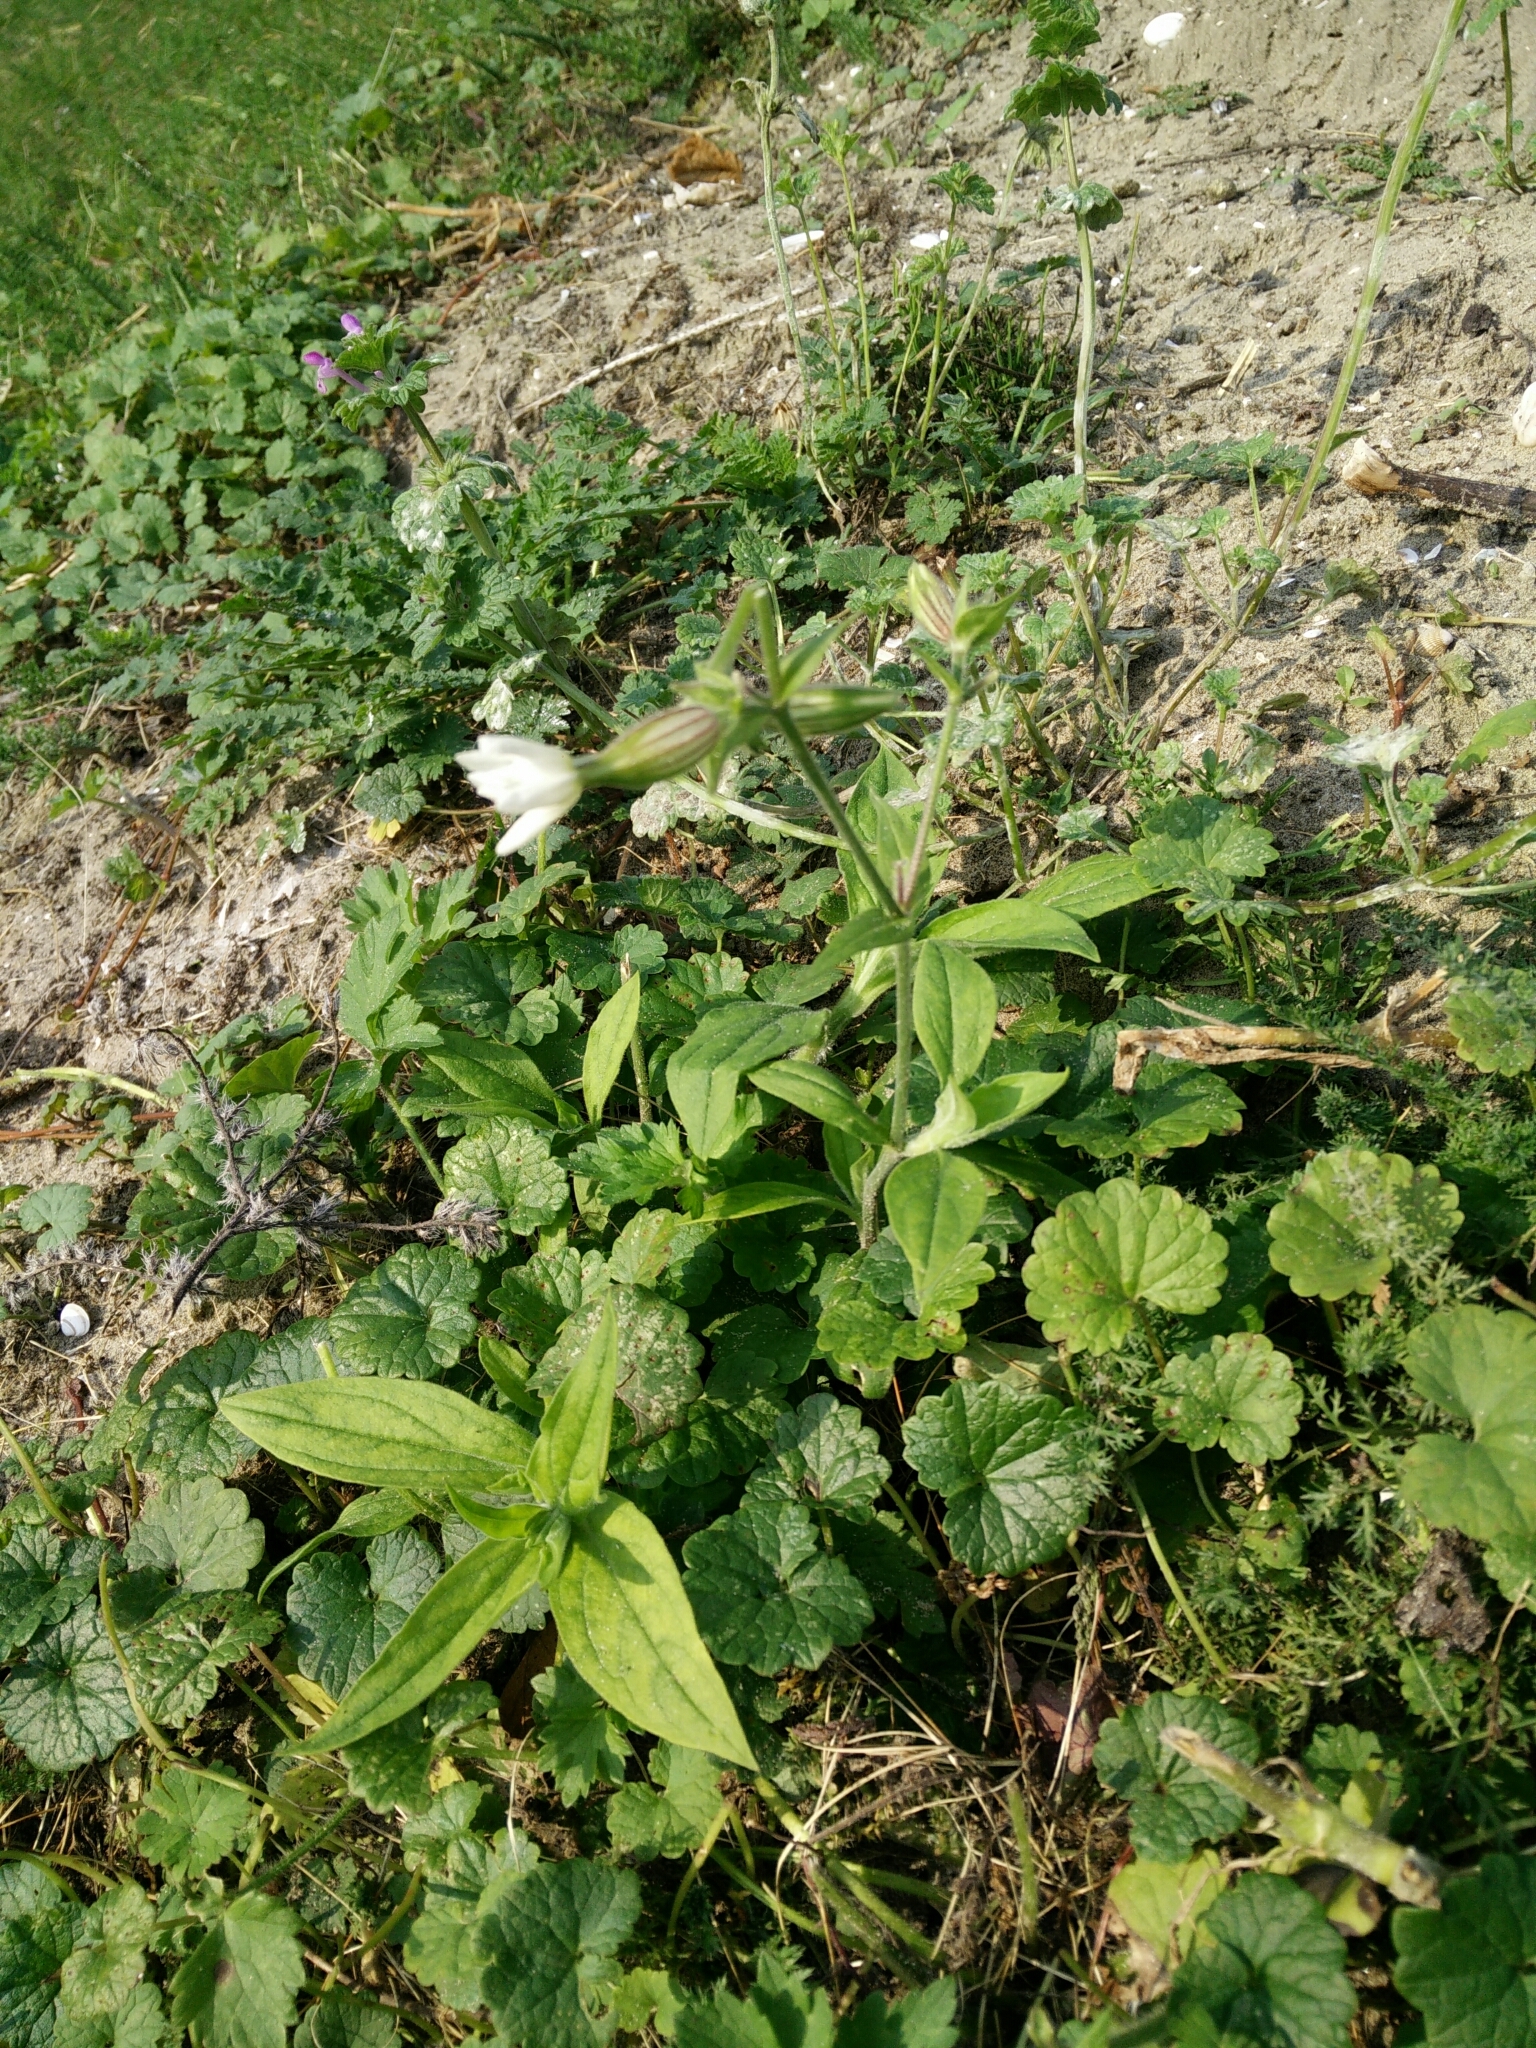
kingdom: Plantae
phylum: Tracheophyta
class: Magnoliopsida
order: Caryophyllales
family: Caryophyllaceae
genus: Silene
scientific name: Silene latifolia
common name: White campion
